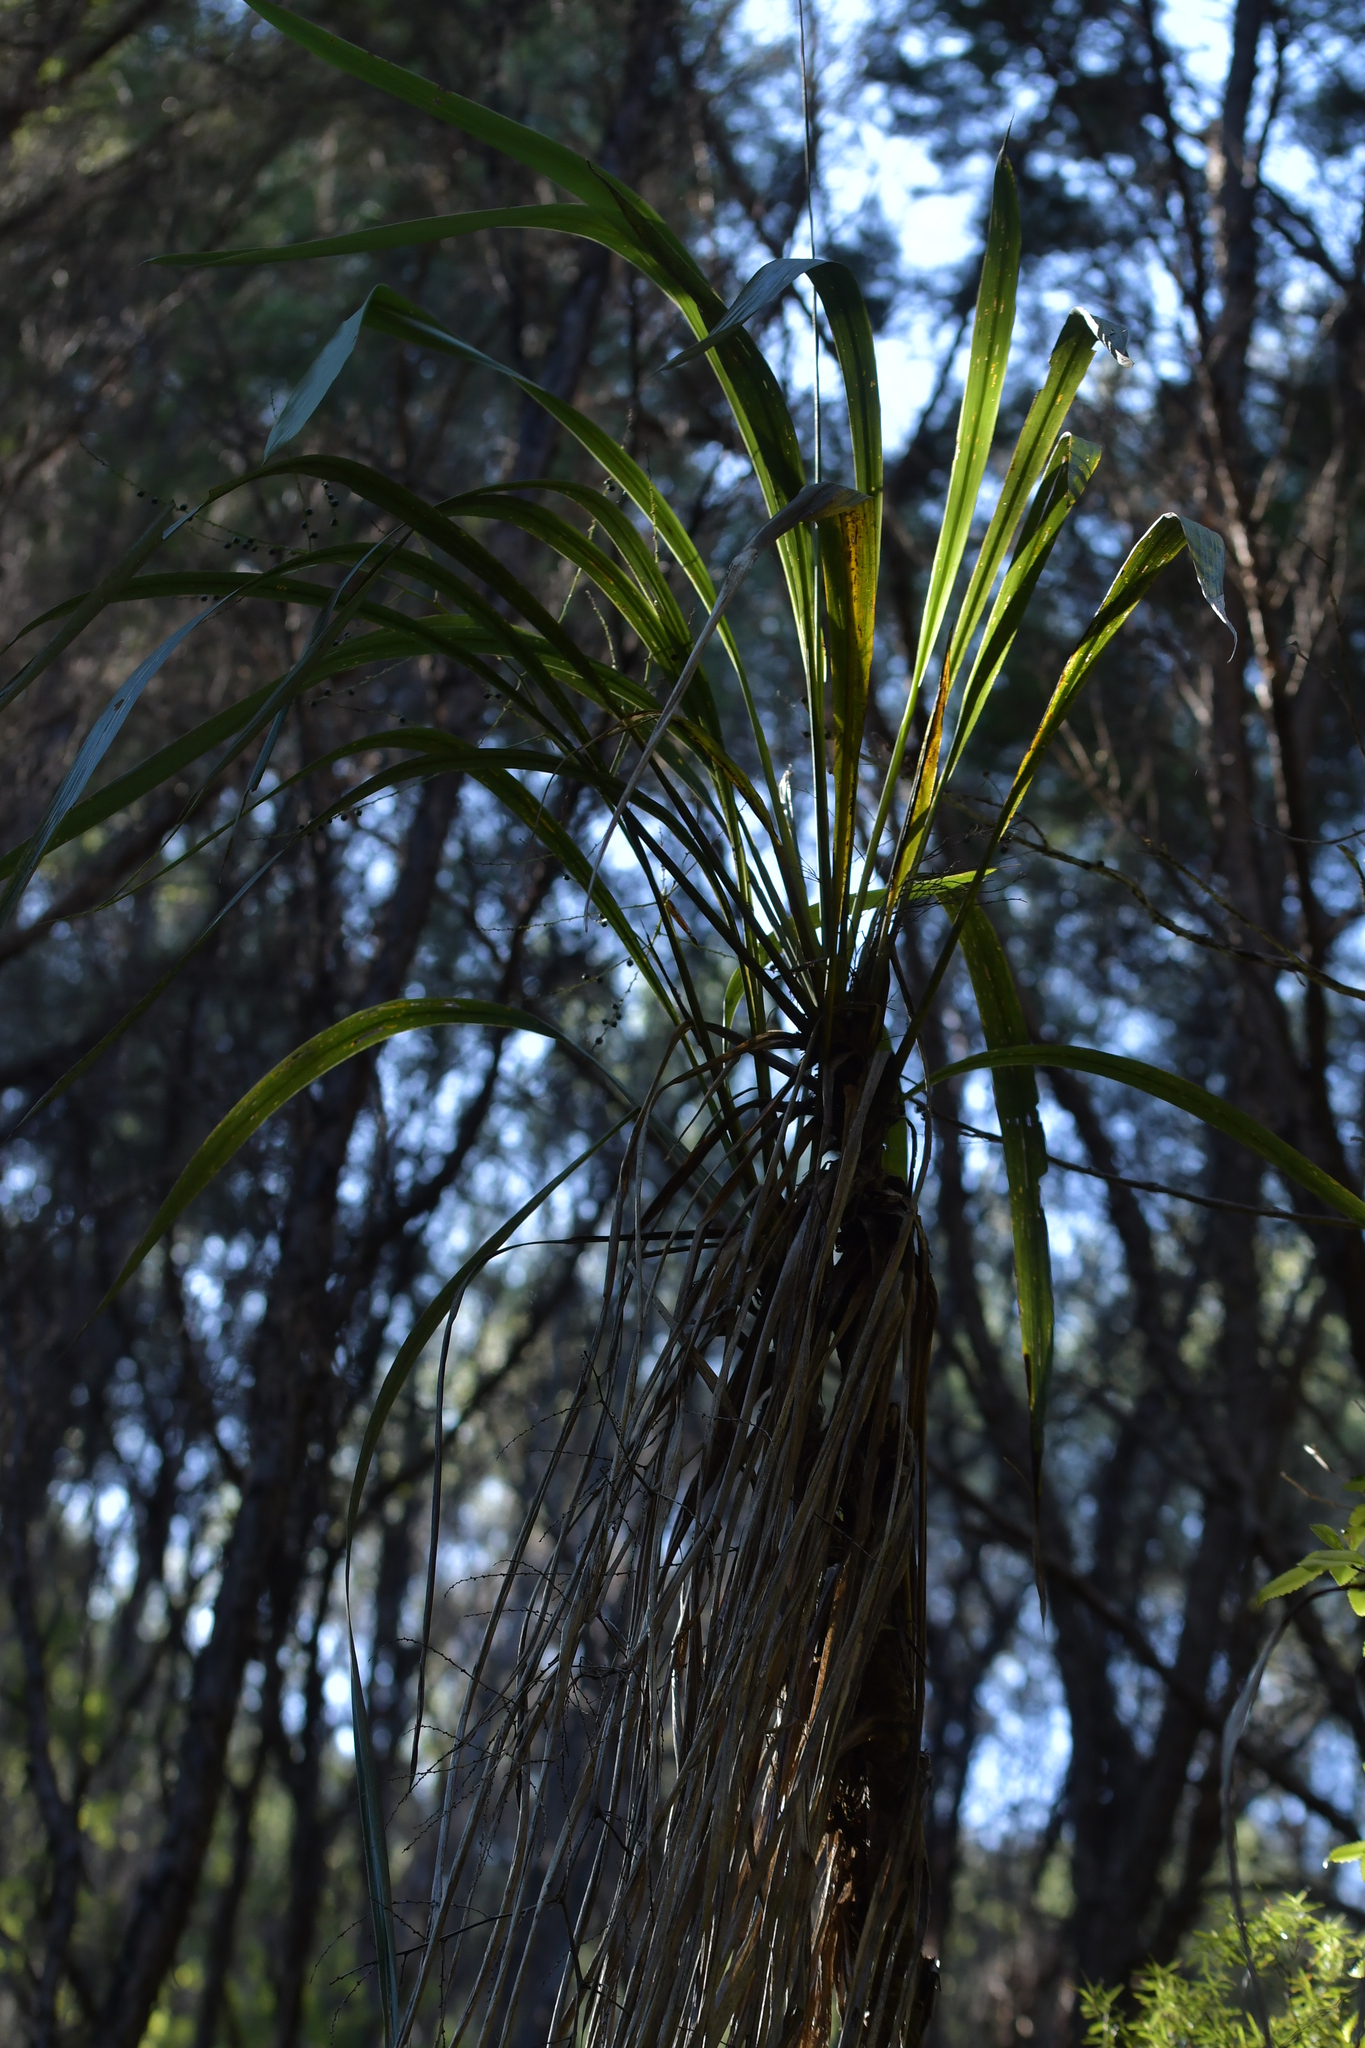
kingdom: Plantae
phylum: Tracheophyta
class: Liliopsida
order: Asparagales
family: Asparagaceae
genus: Cordyline
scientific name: Cordyline banksii
